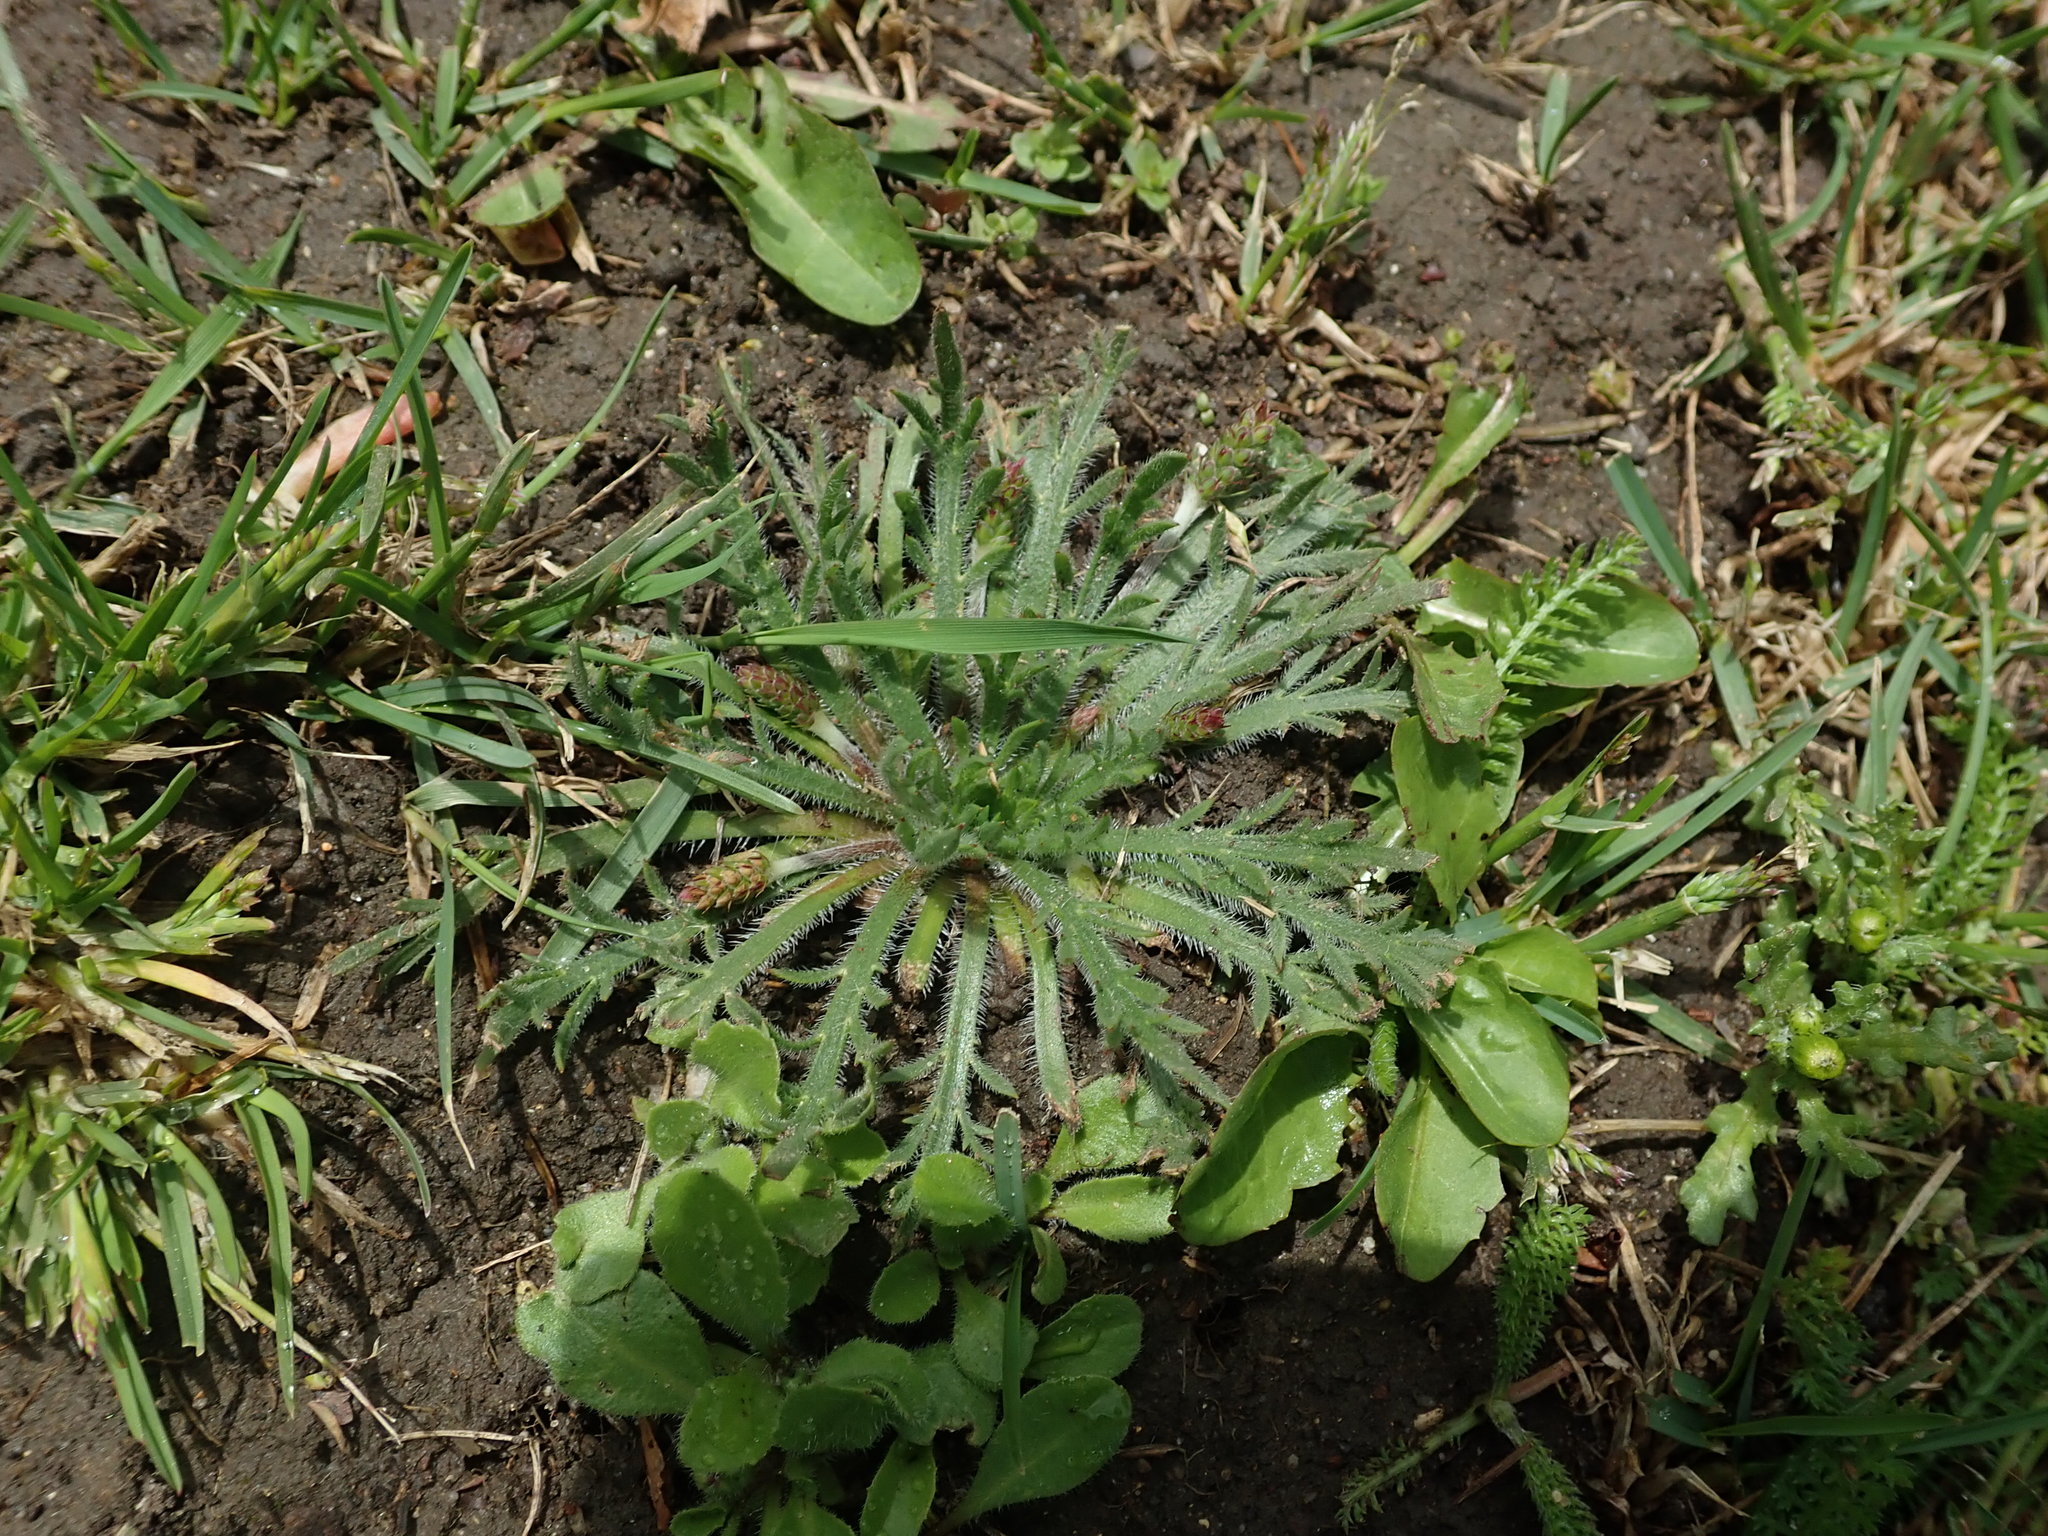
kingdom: Plantae
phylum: Tracheophyta
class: Magnoliopsida
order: Lamiales
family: Plantaginaceae
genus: Plantago
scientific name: Plantago coronopus
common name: Buck's-horn plantain
